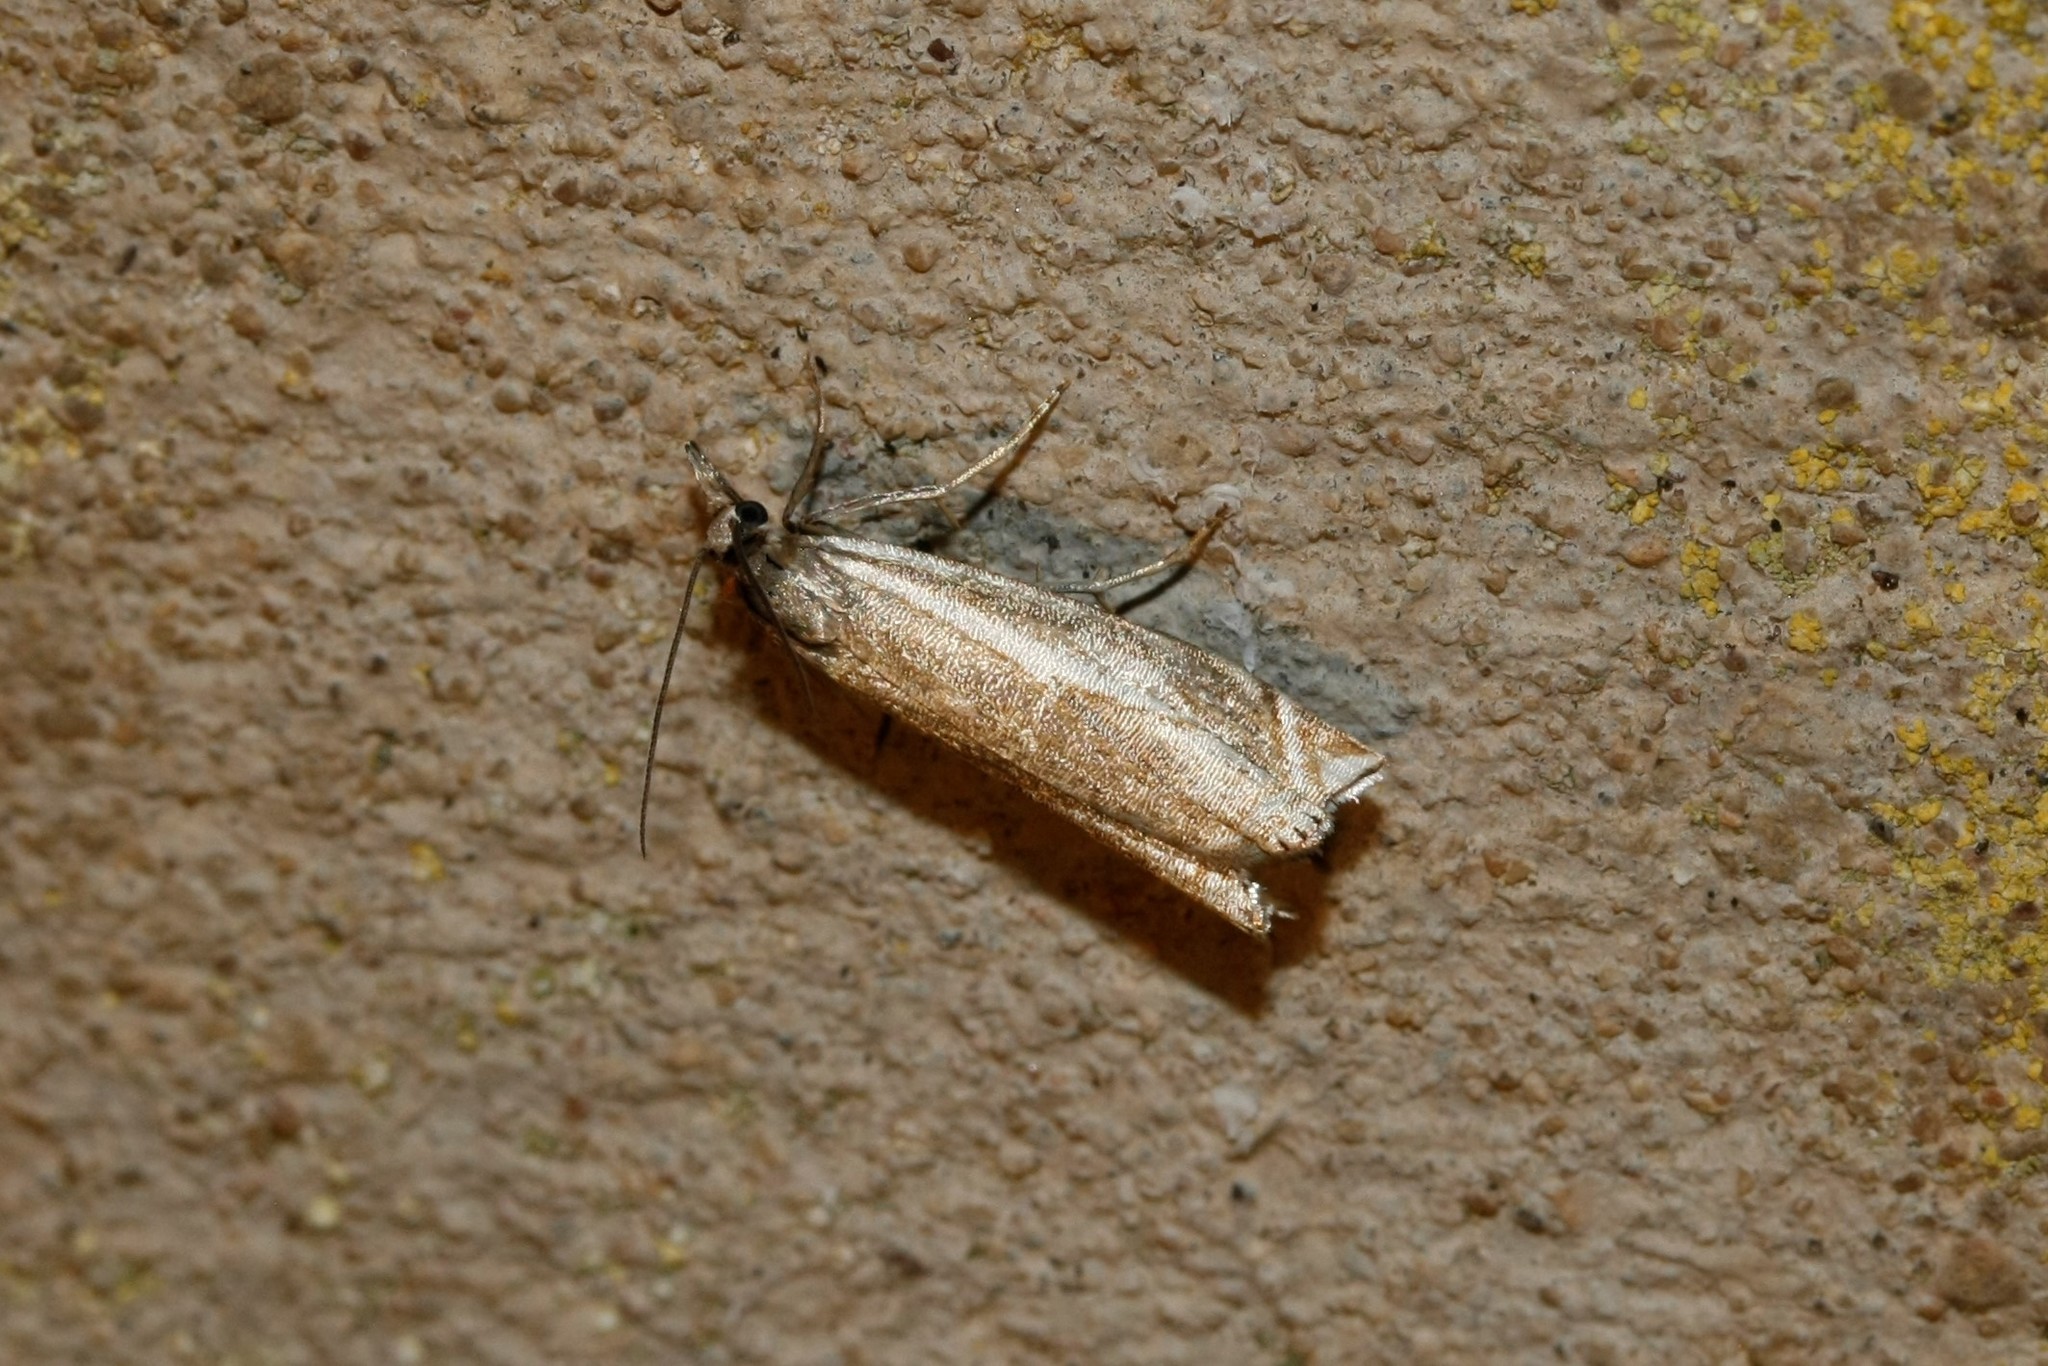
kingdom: Animalia
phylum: Arthropoda
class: Insecta
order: Lepidoptera
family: Crambidae
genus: Crambus
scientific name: Crambus nemorella
